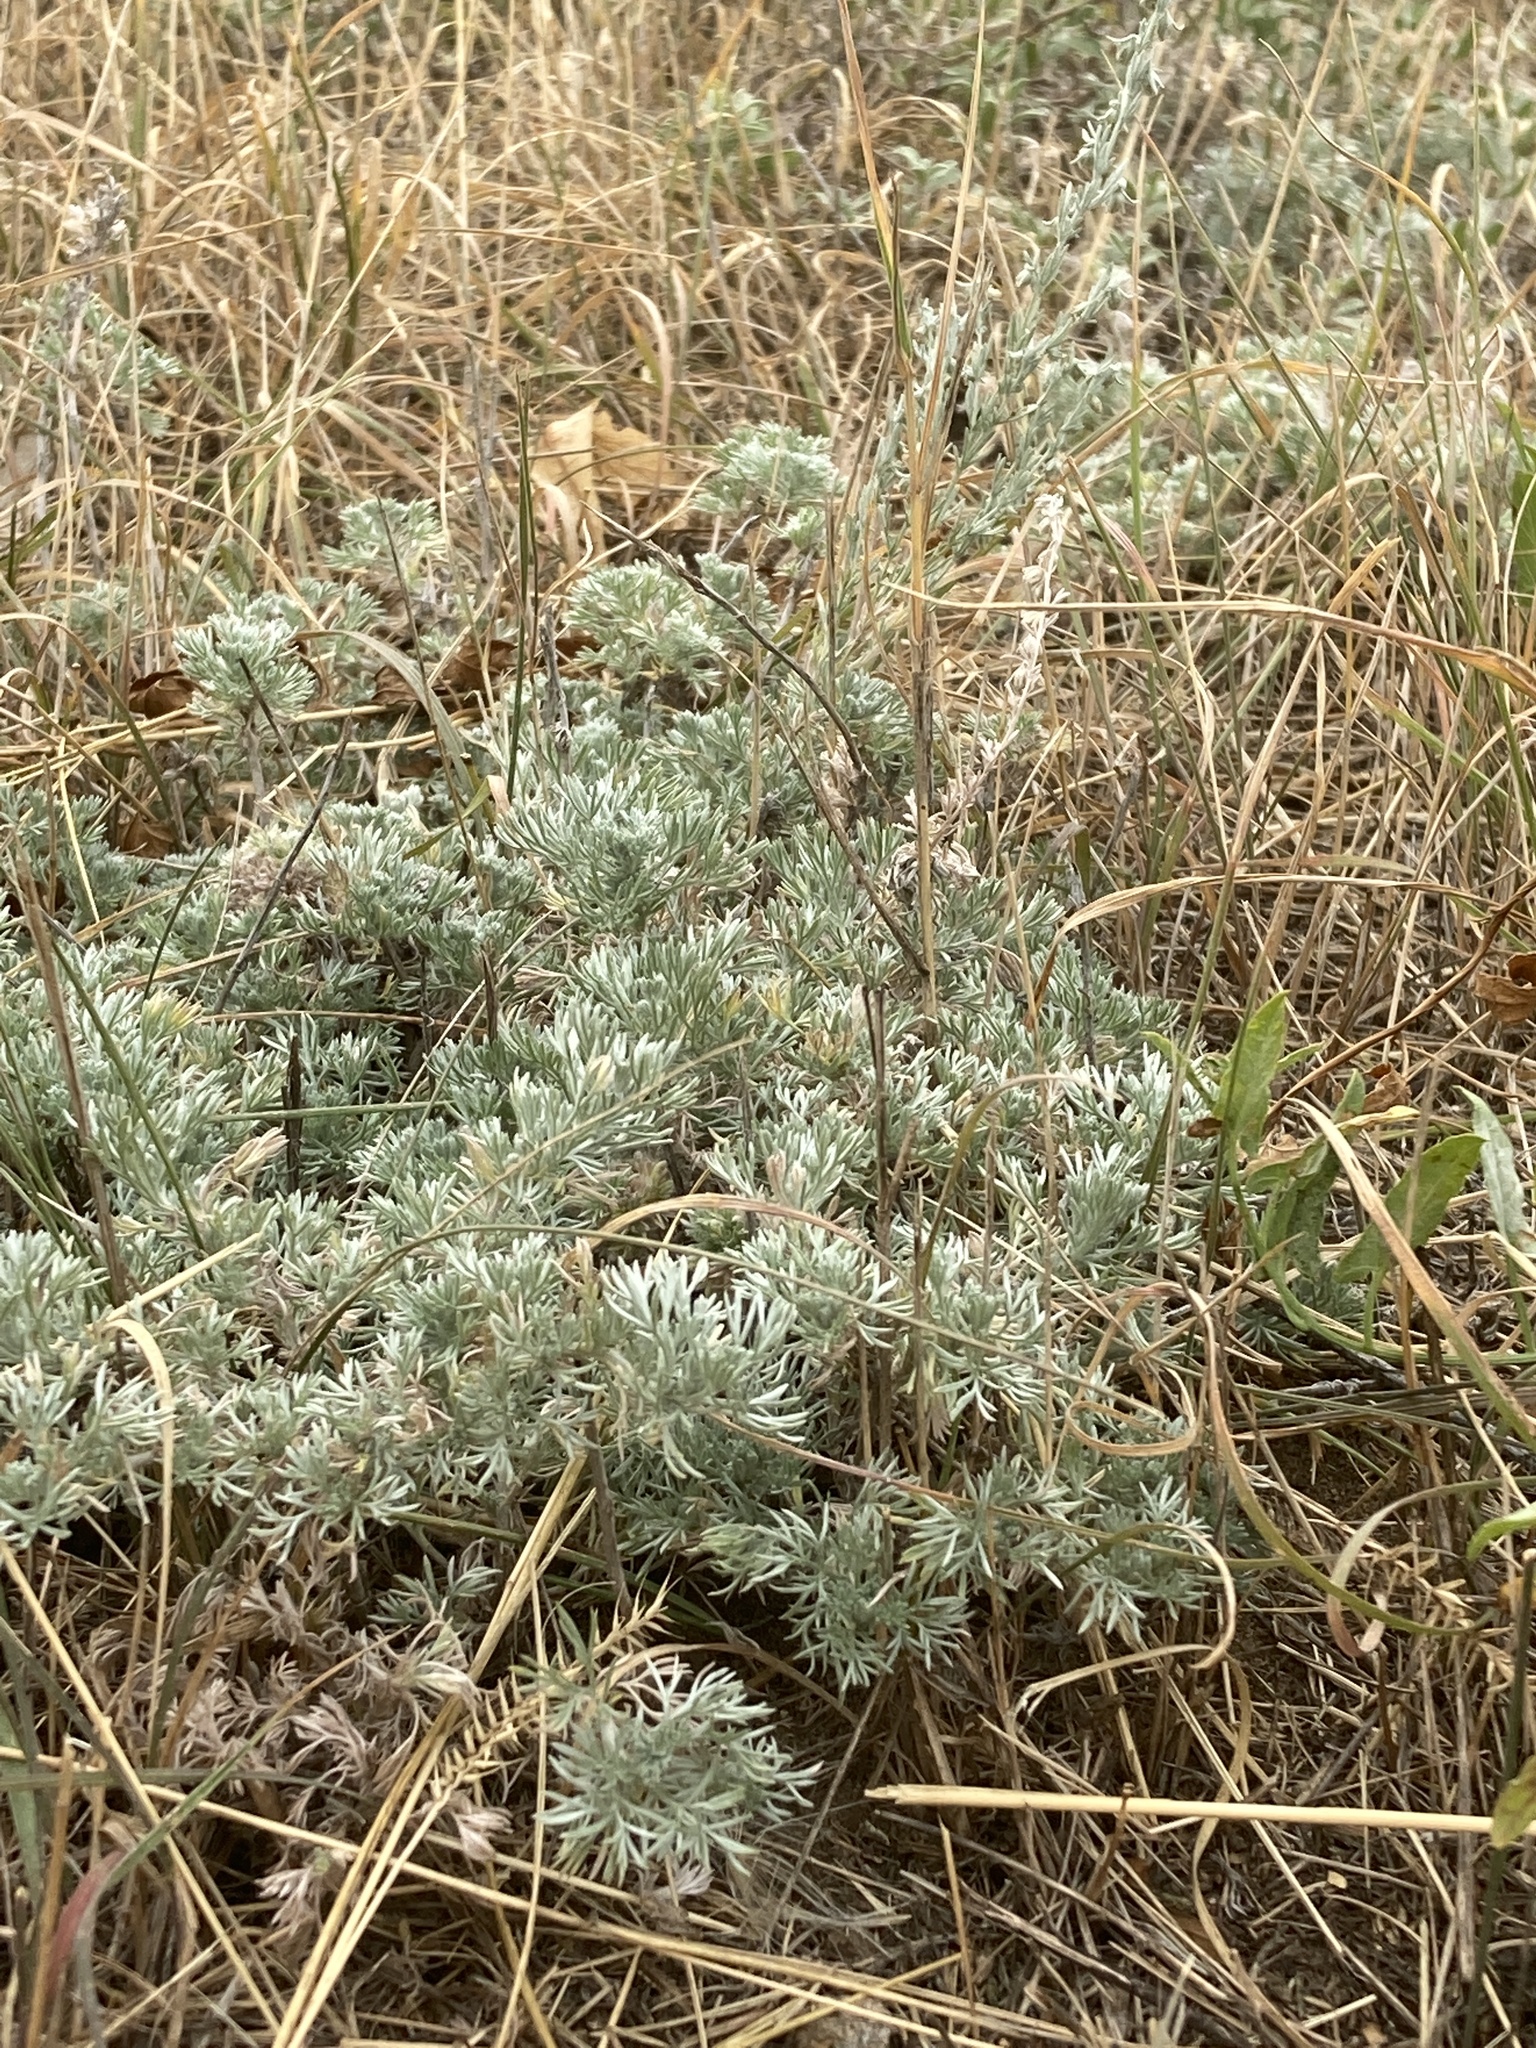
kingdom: Plantae
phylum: Tracheophyta
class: Magnoliopsida
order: Asterales
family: Asteraceae
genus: Artemisia
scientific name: Artemisia frigida
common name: Prairie sagewort
